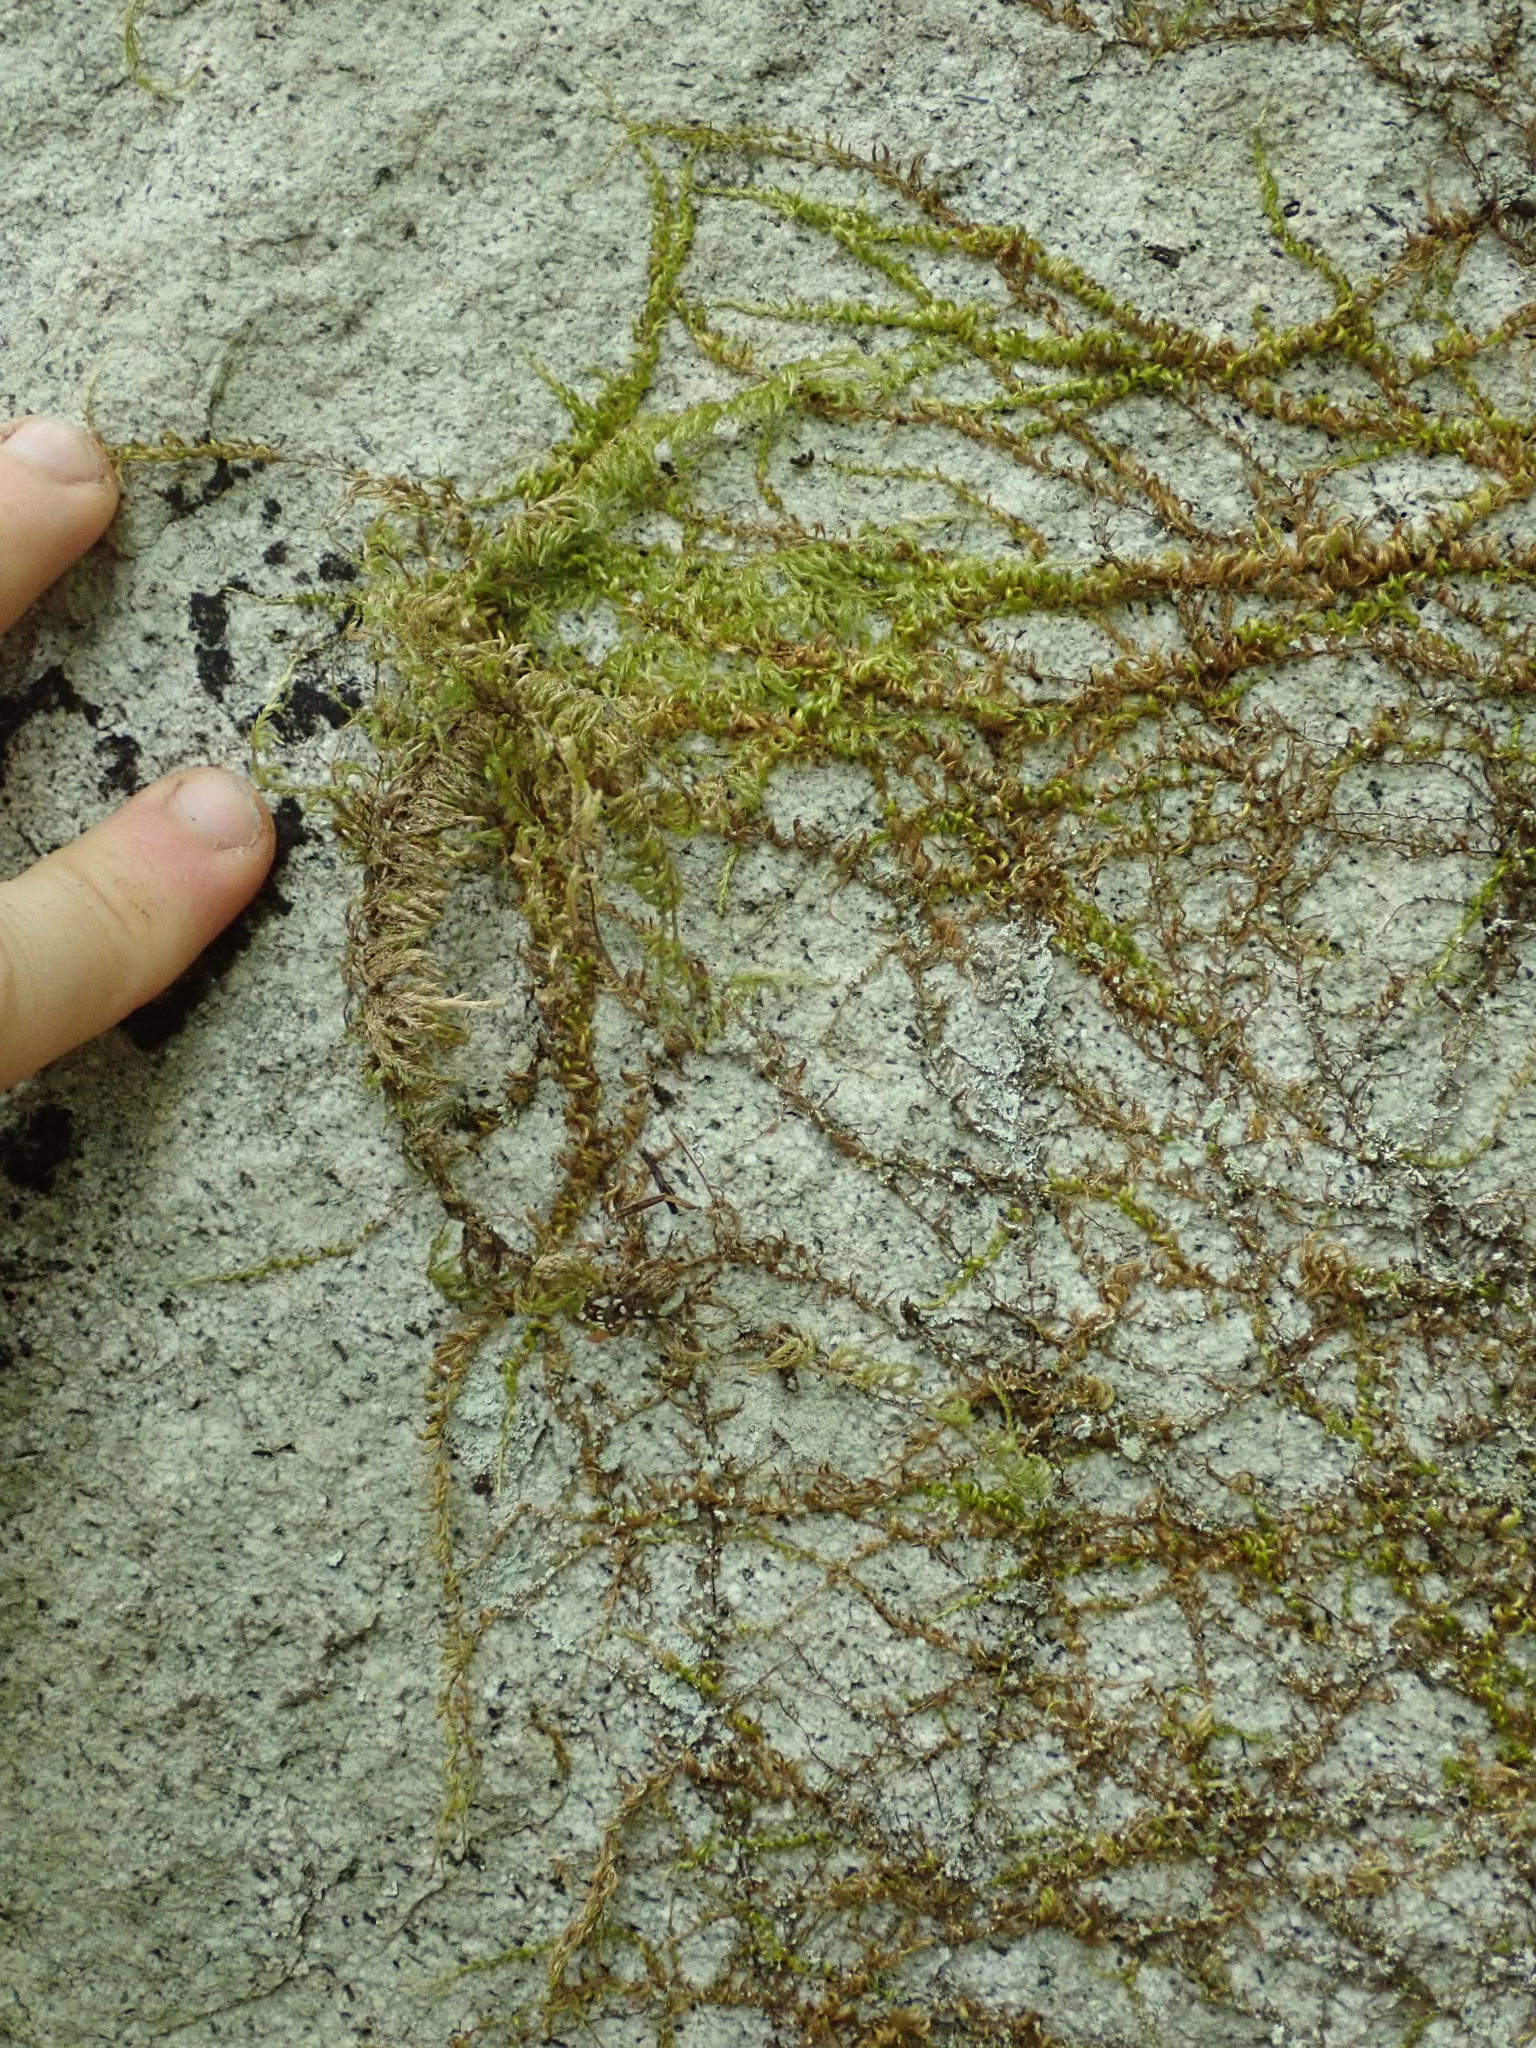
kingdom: Plantae
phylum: Bryophyta
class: Bryopsida
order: Hypnales
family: Brachytheciaceae
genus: Homalothecium
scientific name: Homalothecium nuttallii
